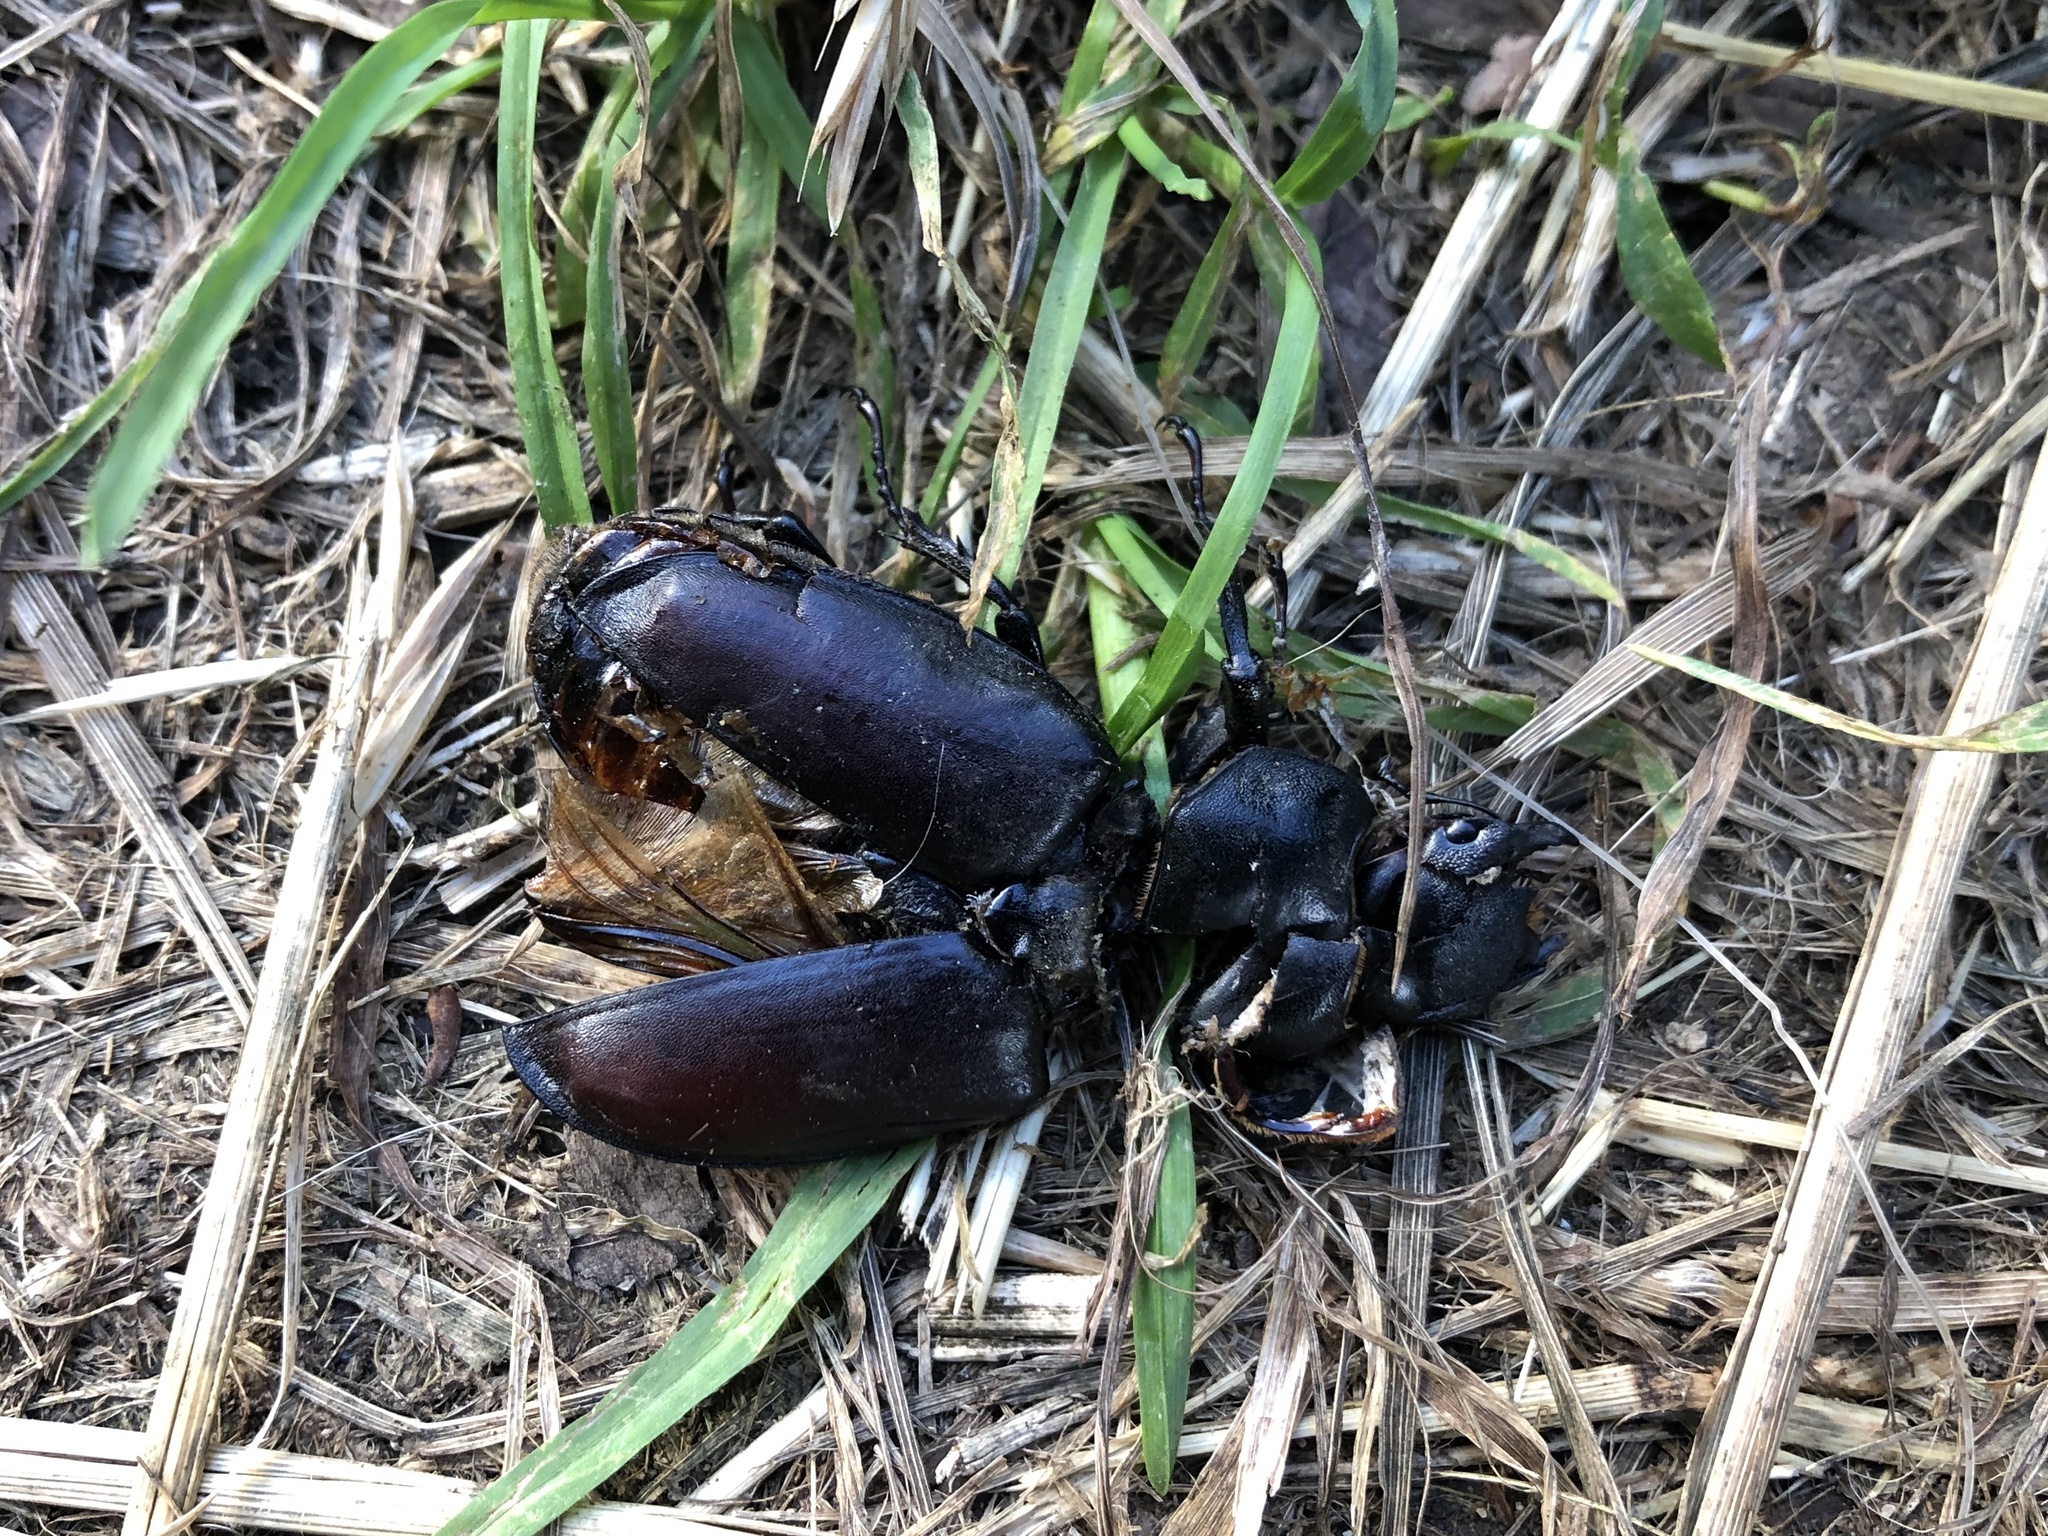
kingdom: Animalia
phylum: Arthropoda
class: Insecta
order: Coleoptera
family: Lucanidae
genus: Lucanus
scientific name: Lucanus cervus
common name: Stag beetle
